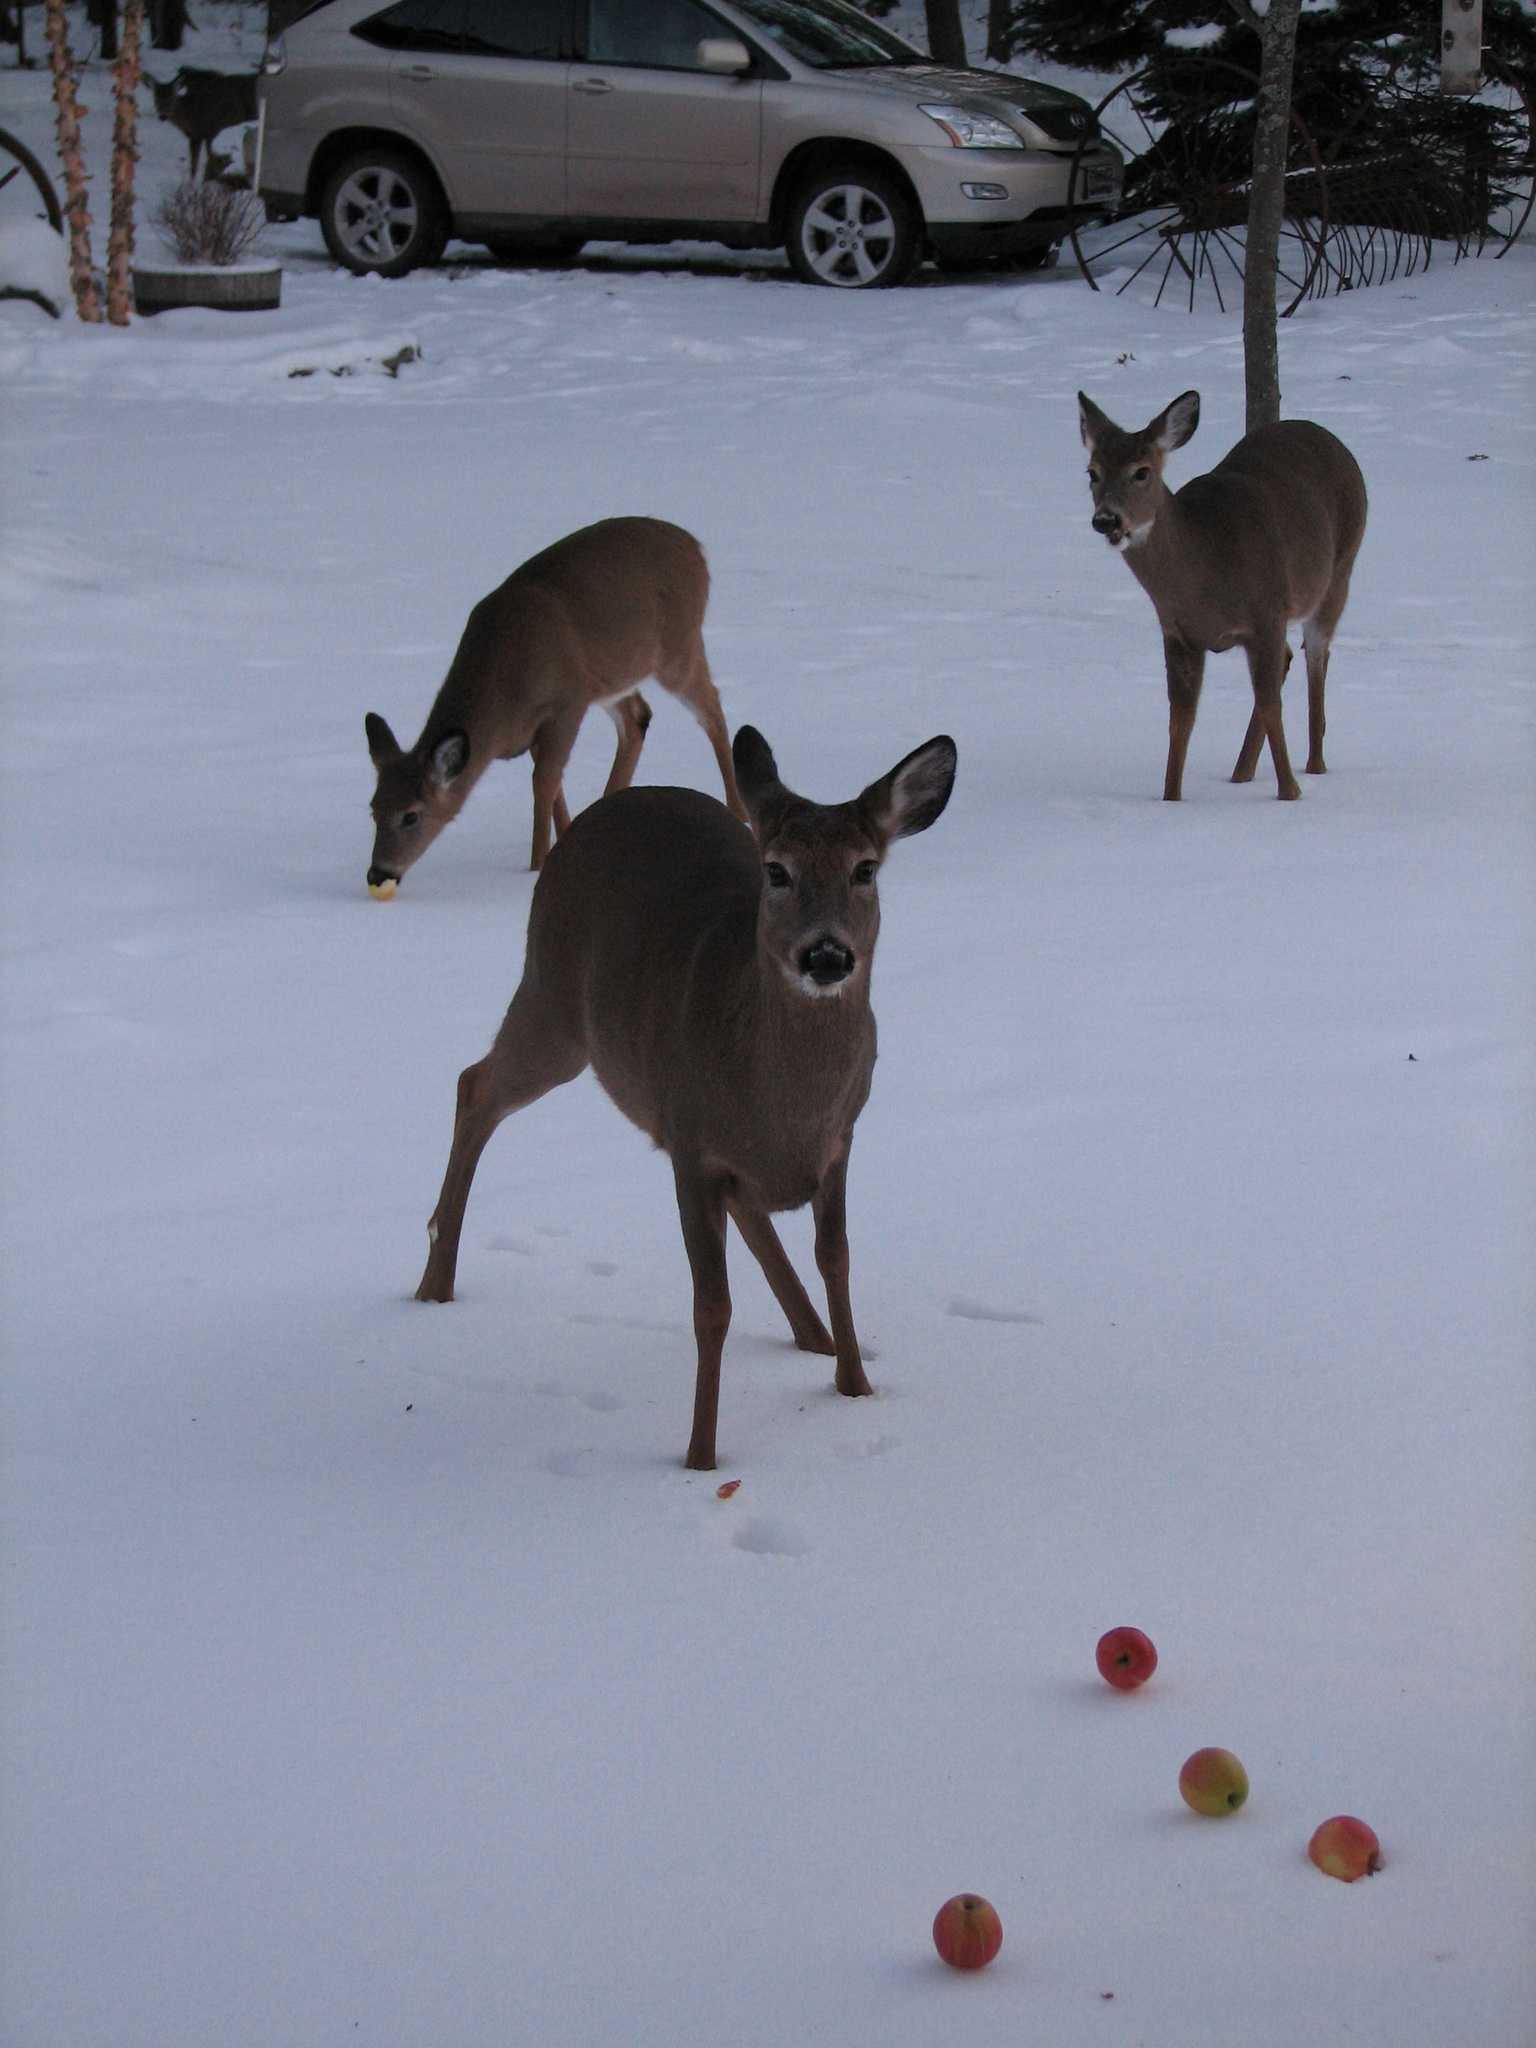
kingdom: Animalia
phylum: Chordata
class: Mammalia
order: Artiodactyla
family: Cervidae
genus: Odocoileus
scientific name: Odocoileus virginianus
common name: White-tailed deer
